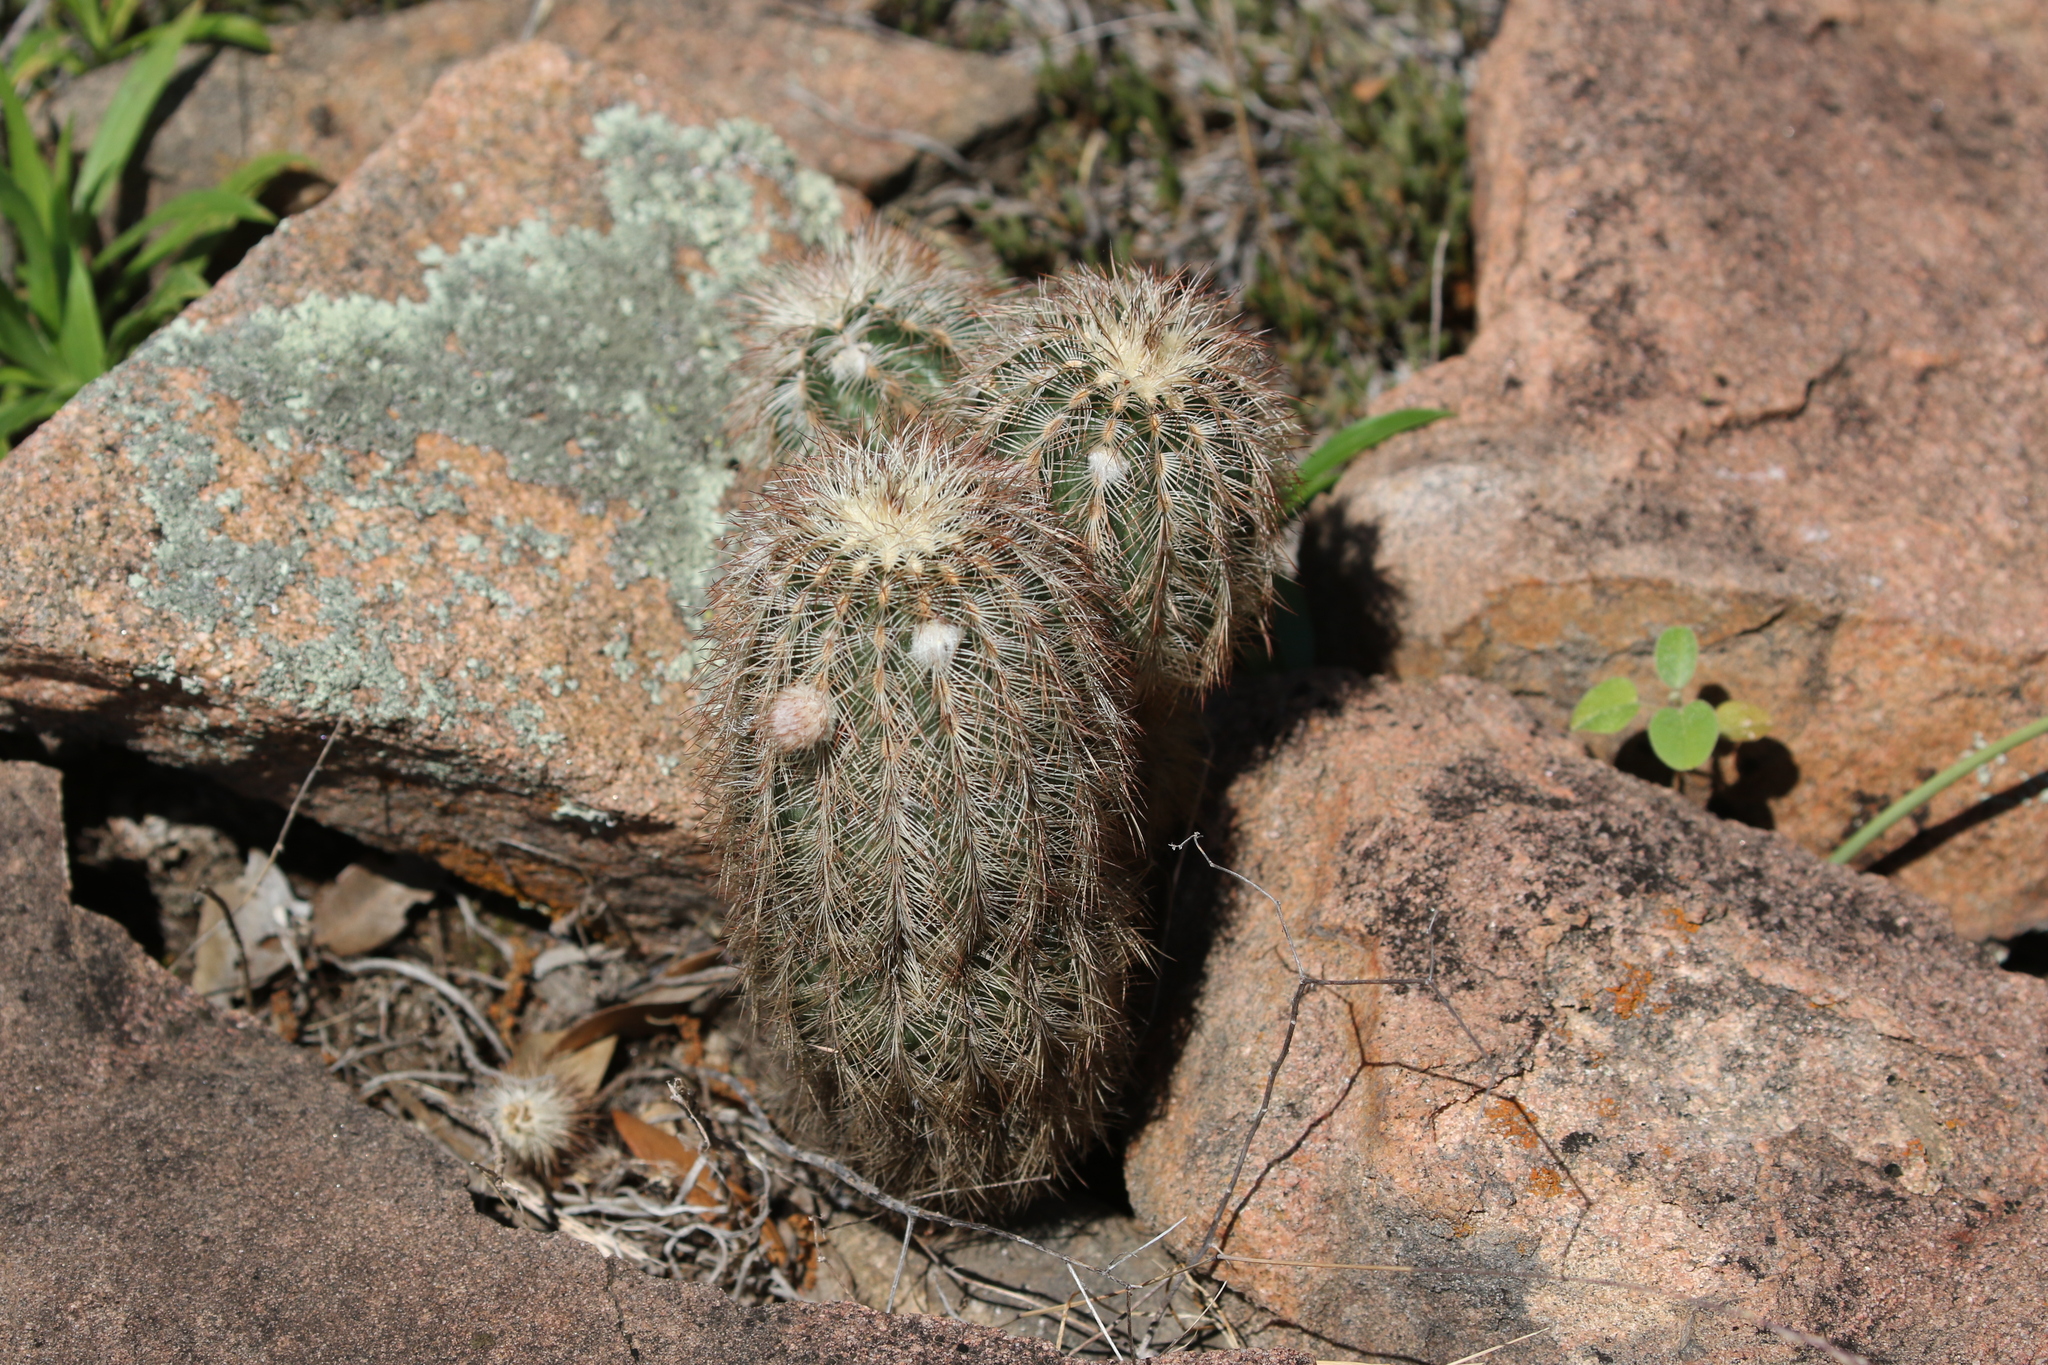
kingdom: Plantae
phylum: Tracheophyta
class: Magnoliopsida
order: Caryophyllales
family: Cactaceae
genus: Echinocereus
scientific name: Echinocereus reichenbachii
